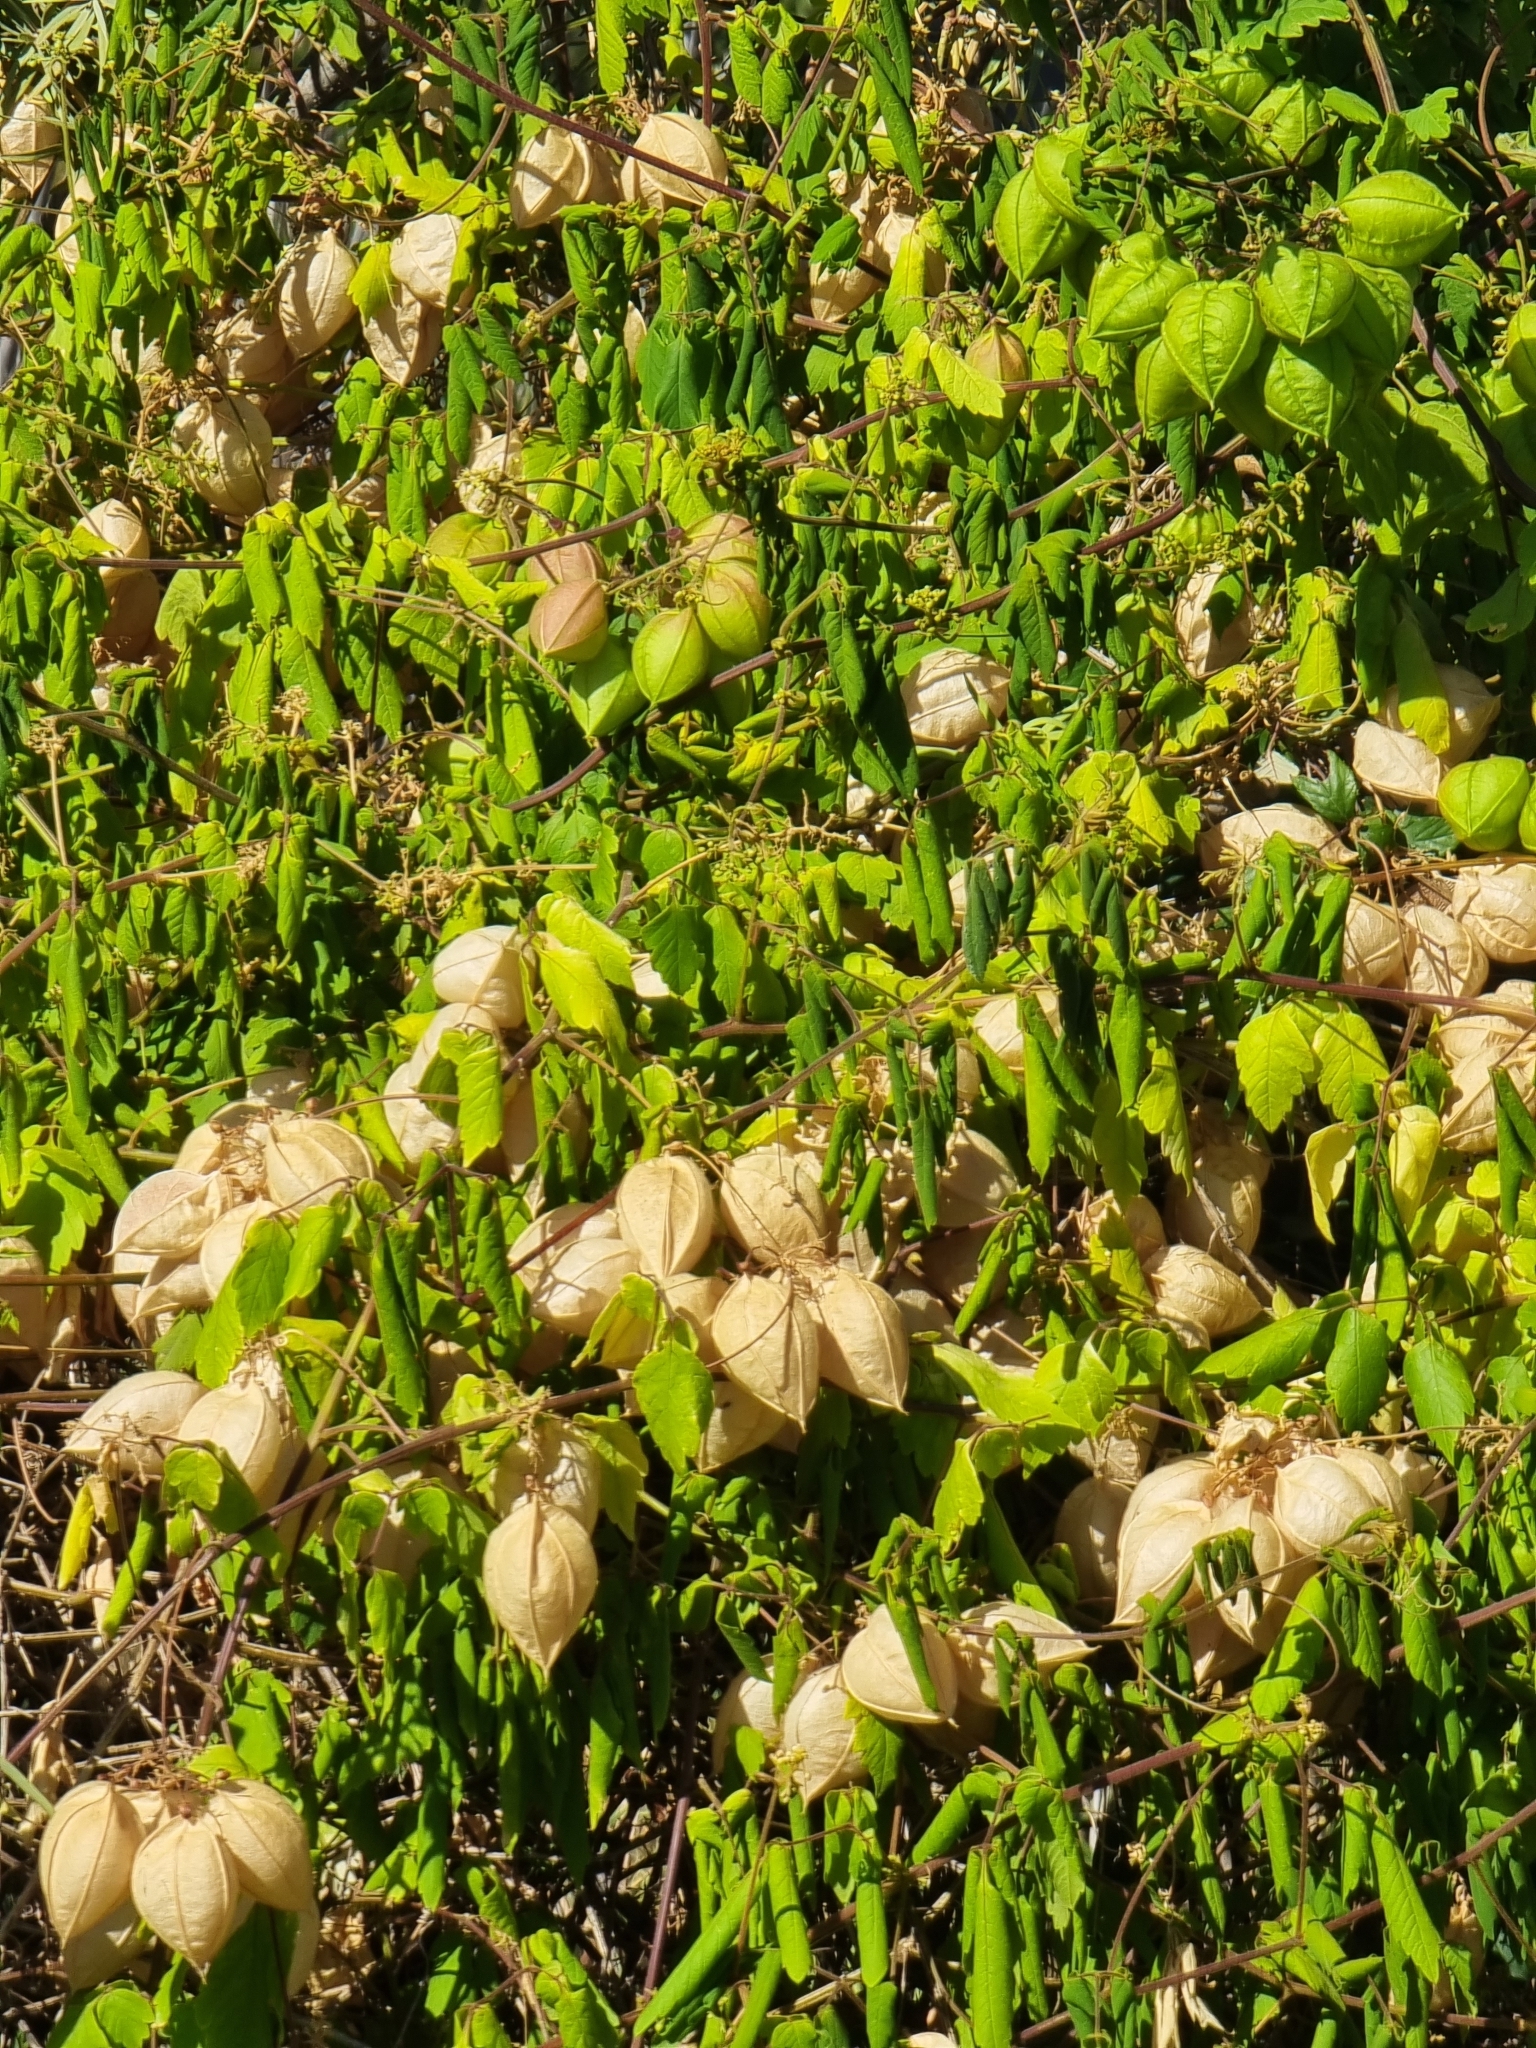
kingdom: Plantae
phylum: Tracheophyta
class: Magnoliopsida
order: Sapindales
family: Sapindaceae
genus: Cardiospermum
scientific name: Cardiospermum grandiflorum
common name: Balloon vine
